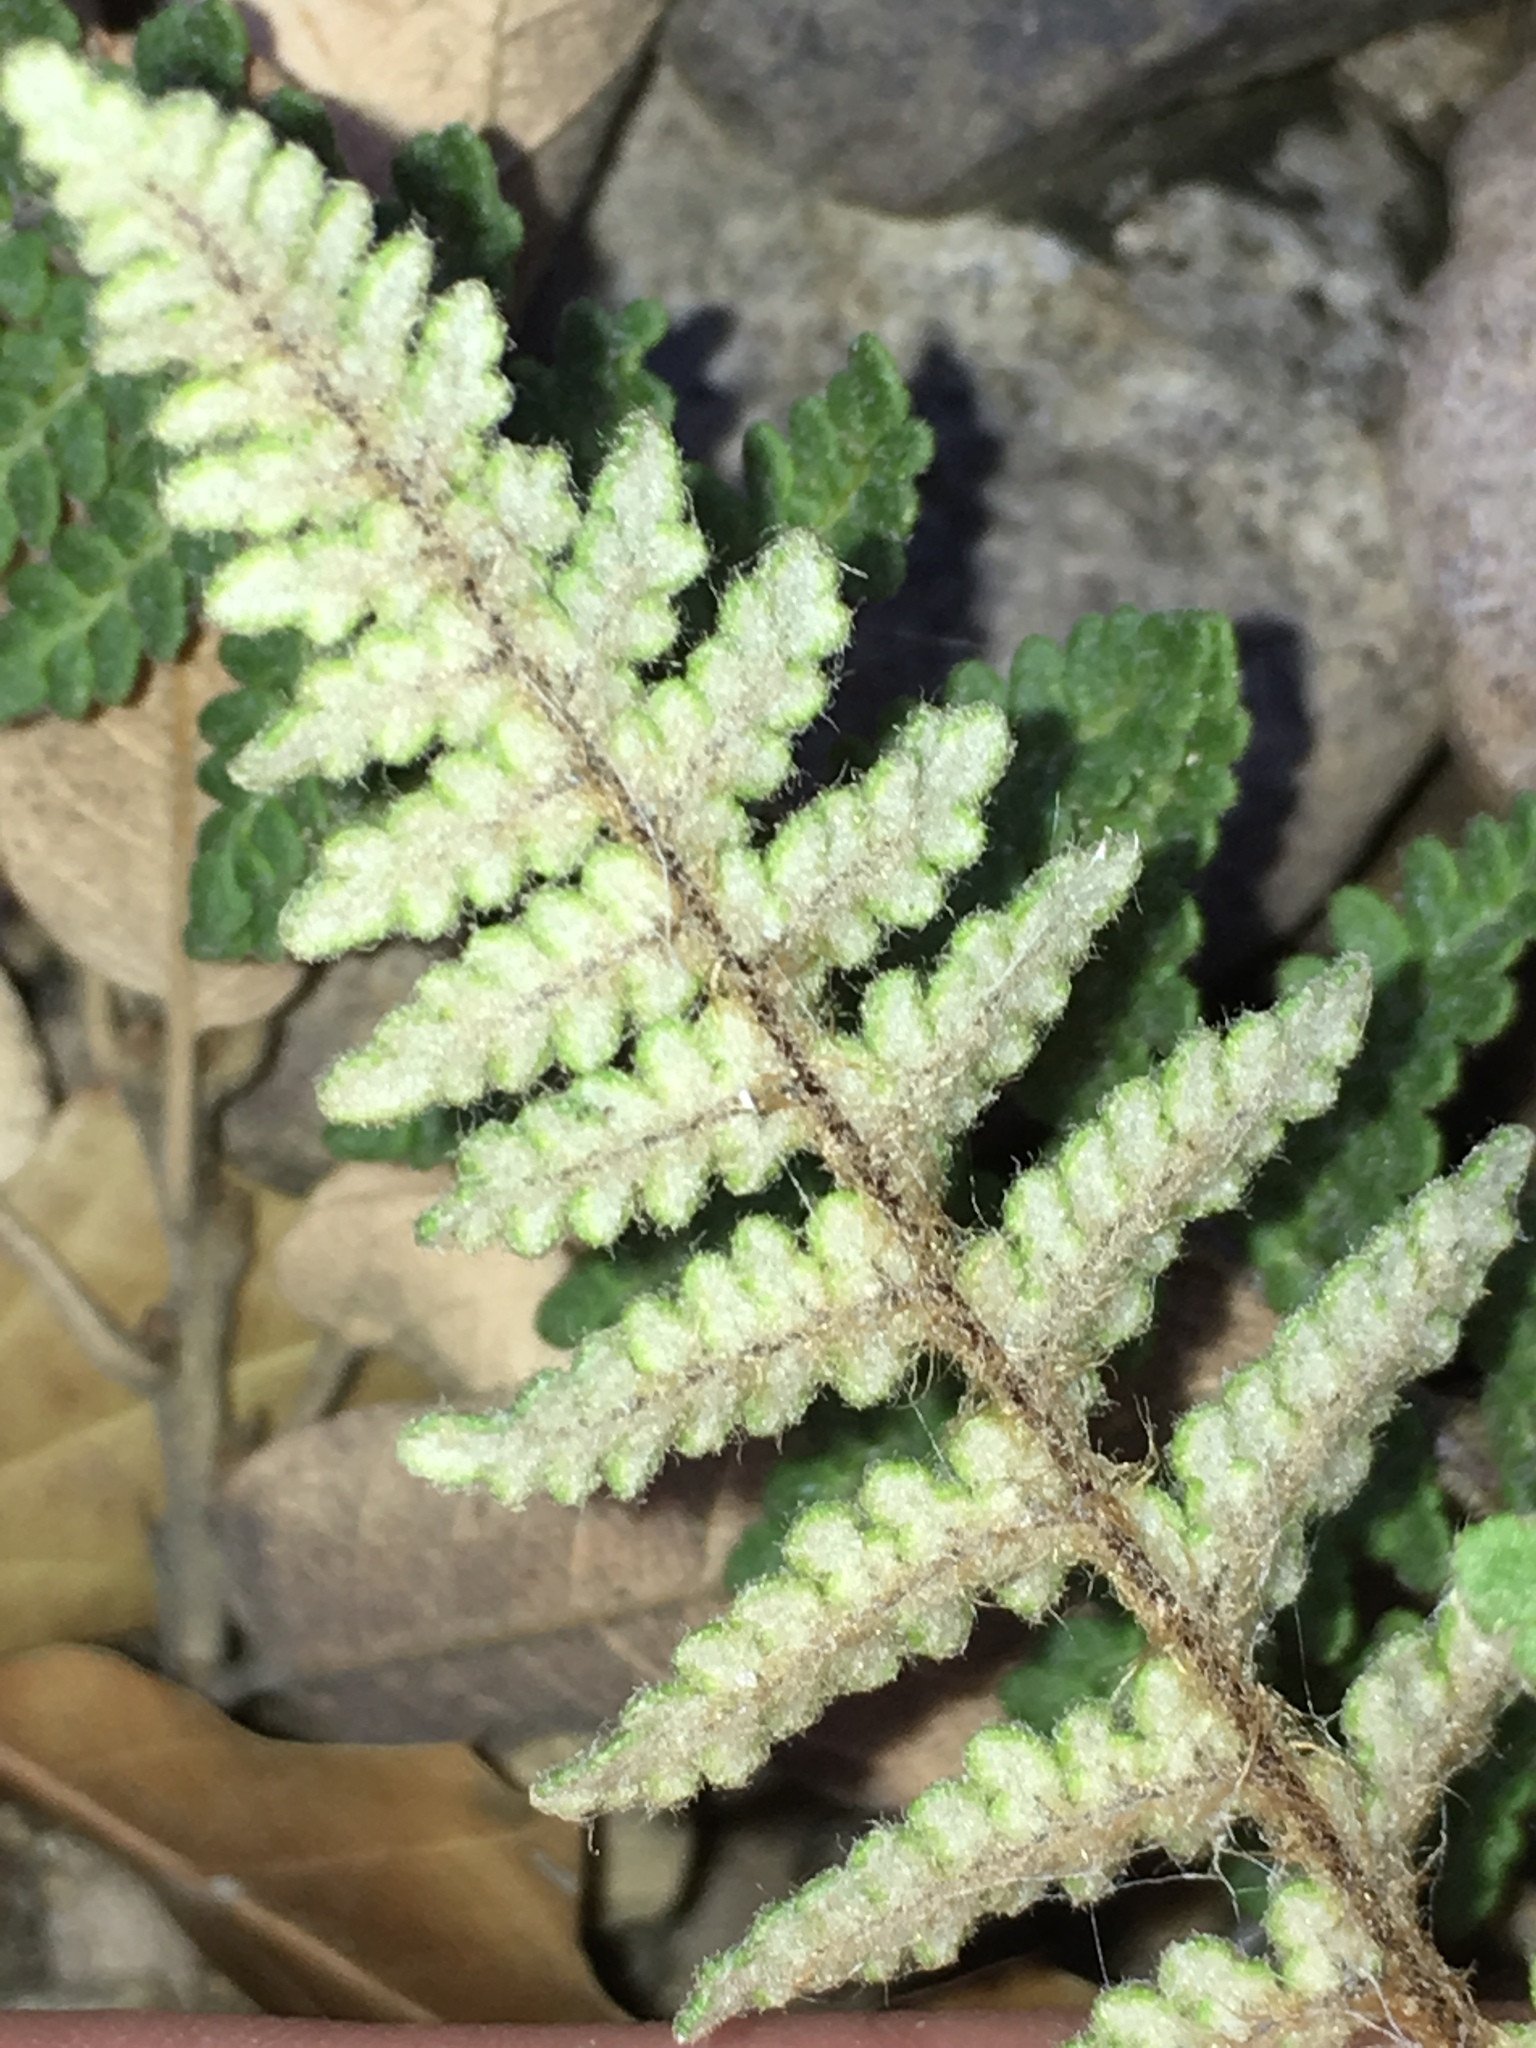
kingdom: Plantae
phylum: Tracheophyta
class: Polypodiopsida
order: Polypodiales
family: Pteridaceae
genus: Myriopteris
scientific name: Myriopteris tomentosa
